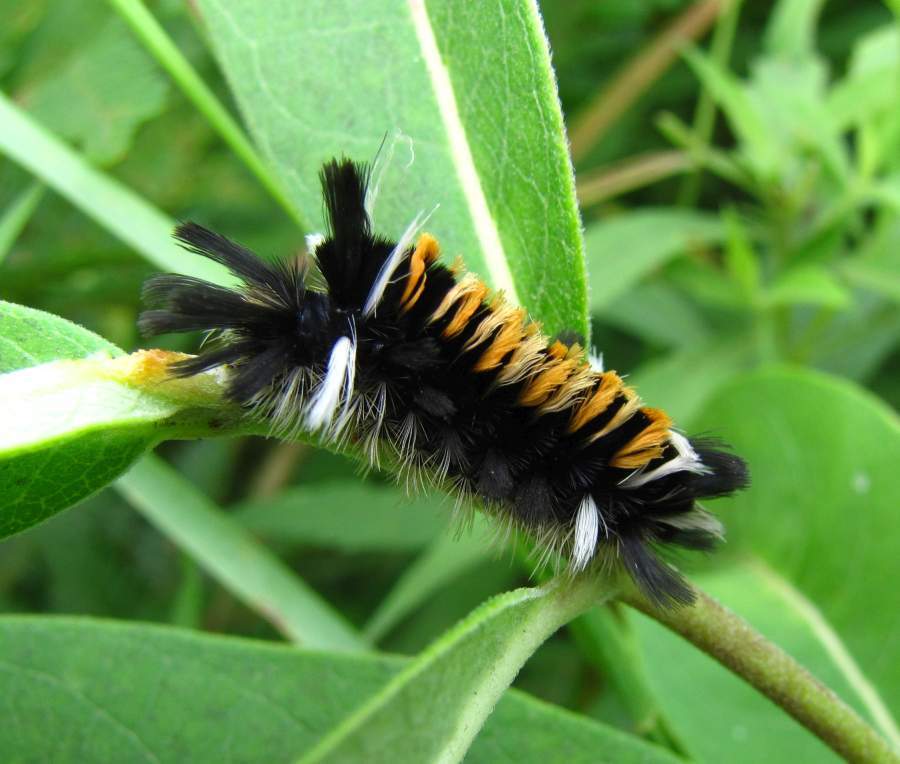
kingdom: Animalia
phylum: Arthropoda
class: Insecta
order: Lepidoptera
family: Erebidae
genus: Euchaetes
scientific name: Euchaetes egle
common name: Milkweed tussock moth
